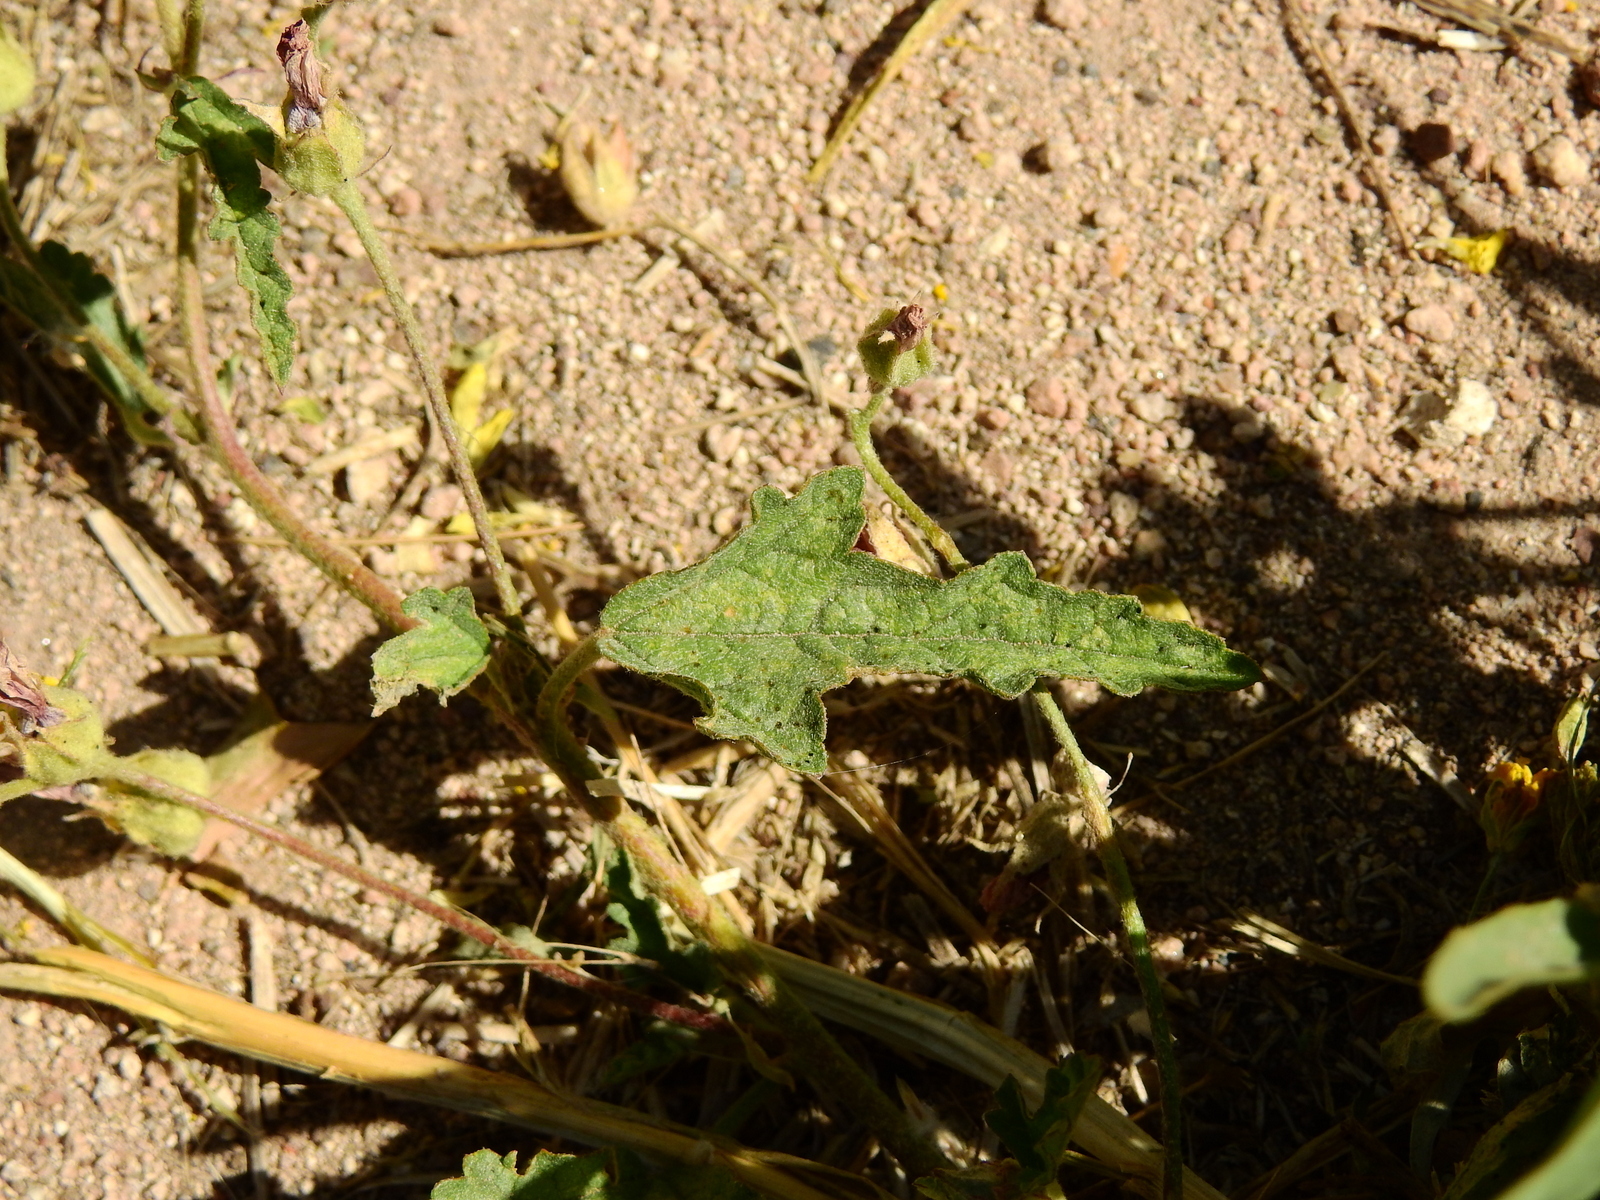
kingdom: Plantae
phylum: Tracheophyta
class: Magnoliopsida
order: Malvales
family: Malvaceae
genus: Sphaeralcea
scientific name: Sphaeralcea miniata
